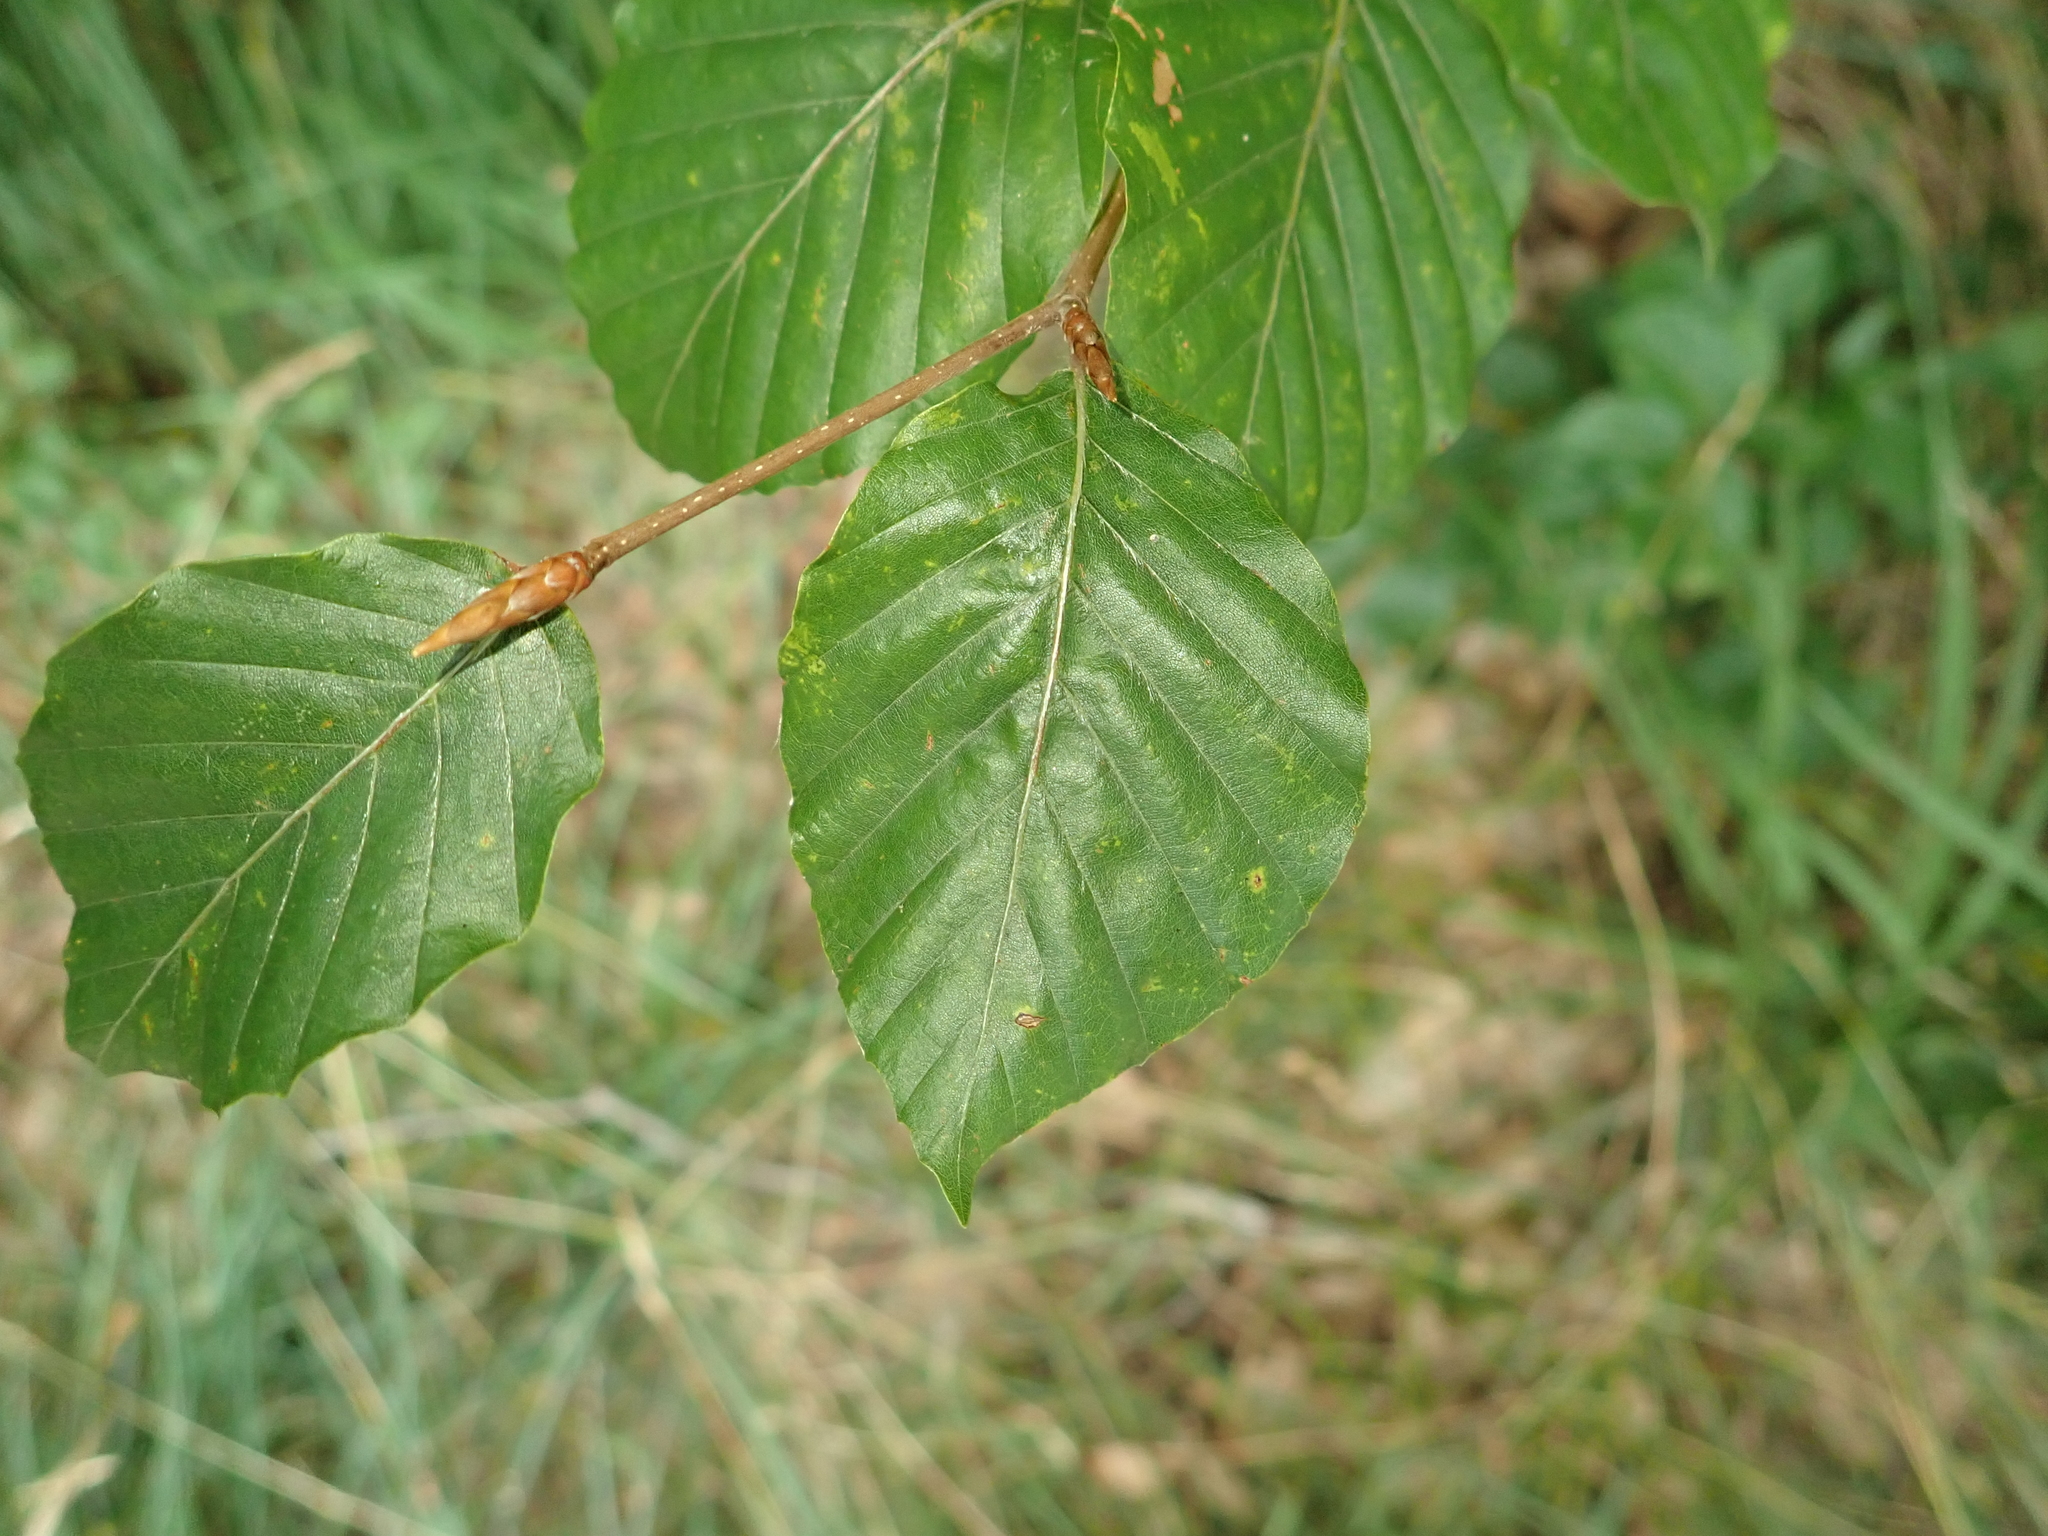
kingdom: Plantae
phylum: Tracheophyta
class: Magnoliopsida
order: Fagales
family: Fagaceae
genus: Fagus
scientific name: Fagus sylvatica
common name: Beech
